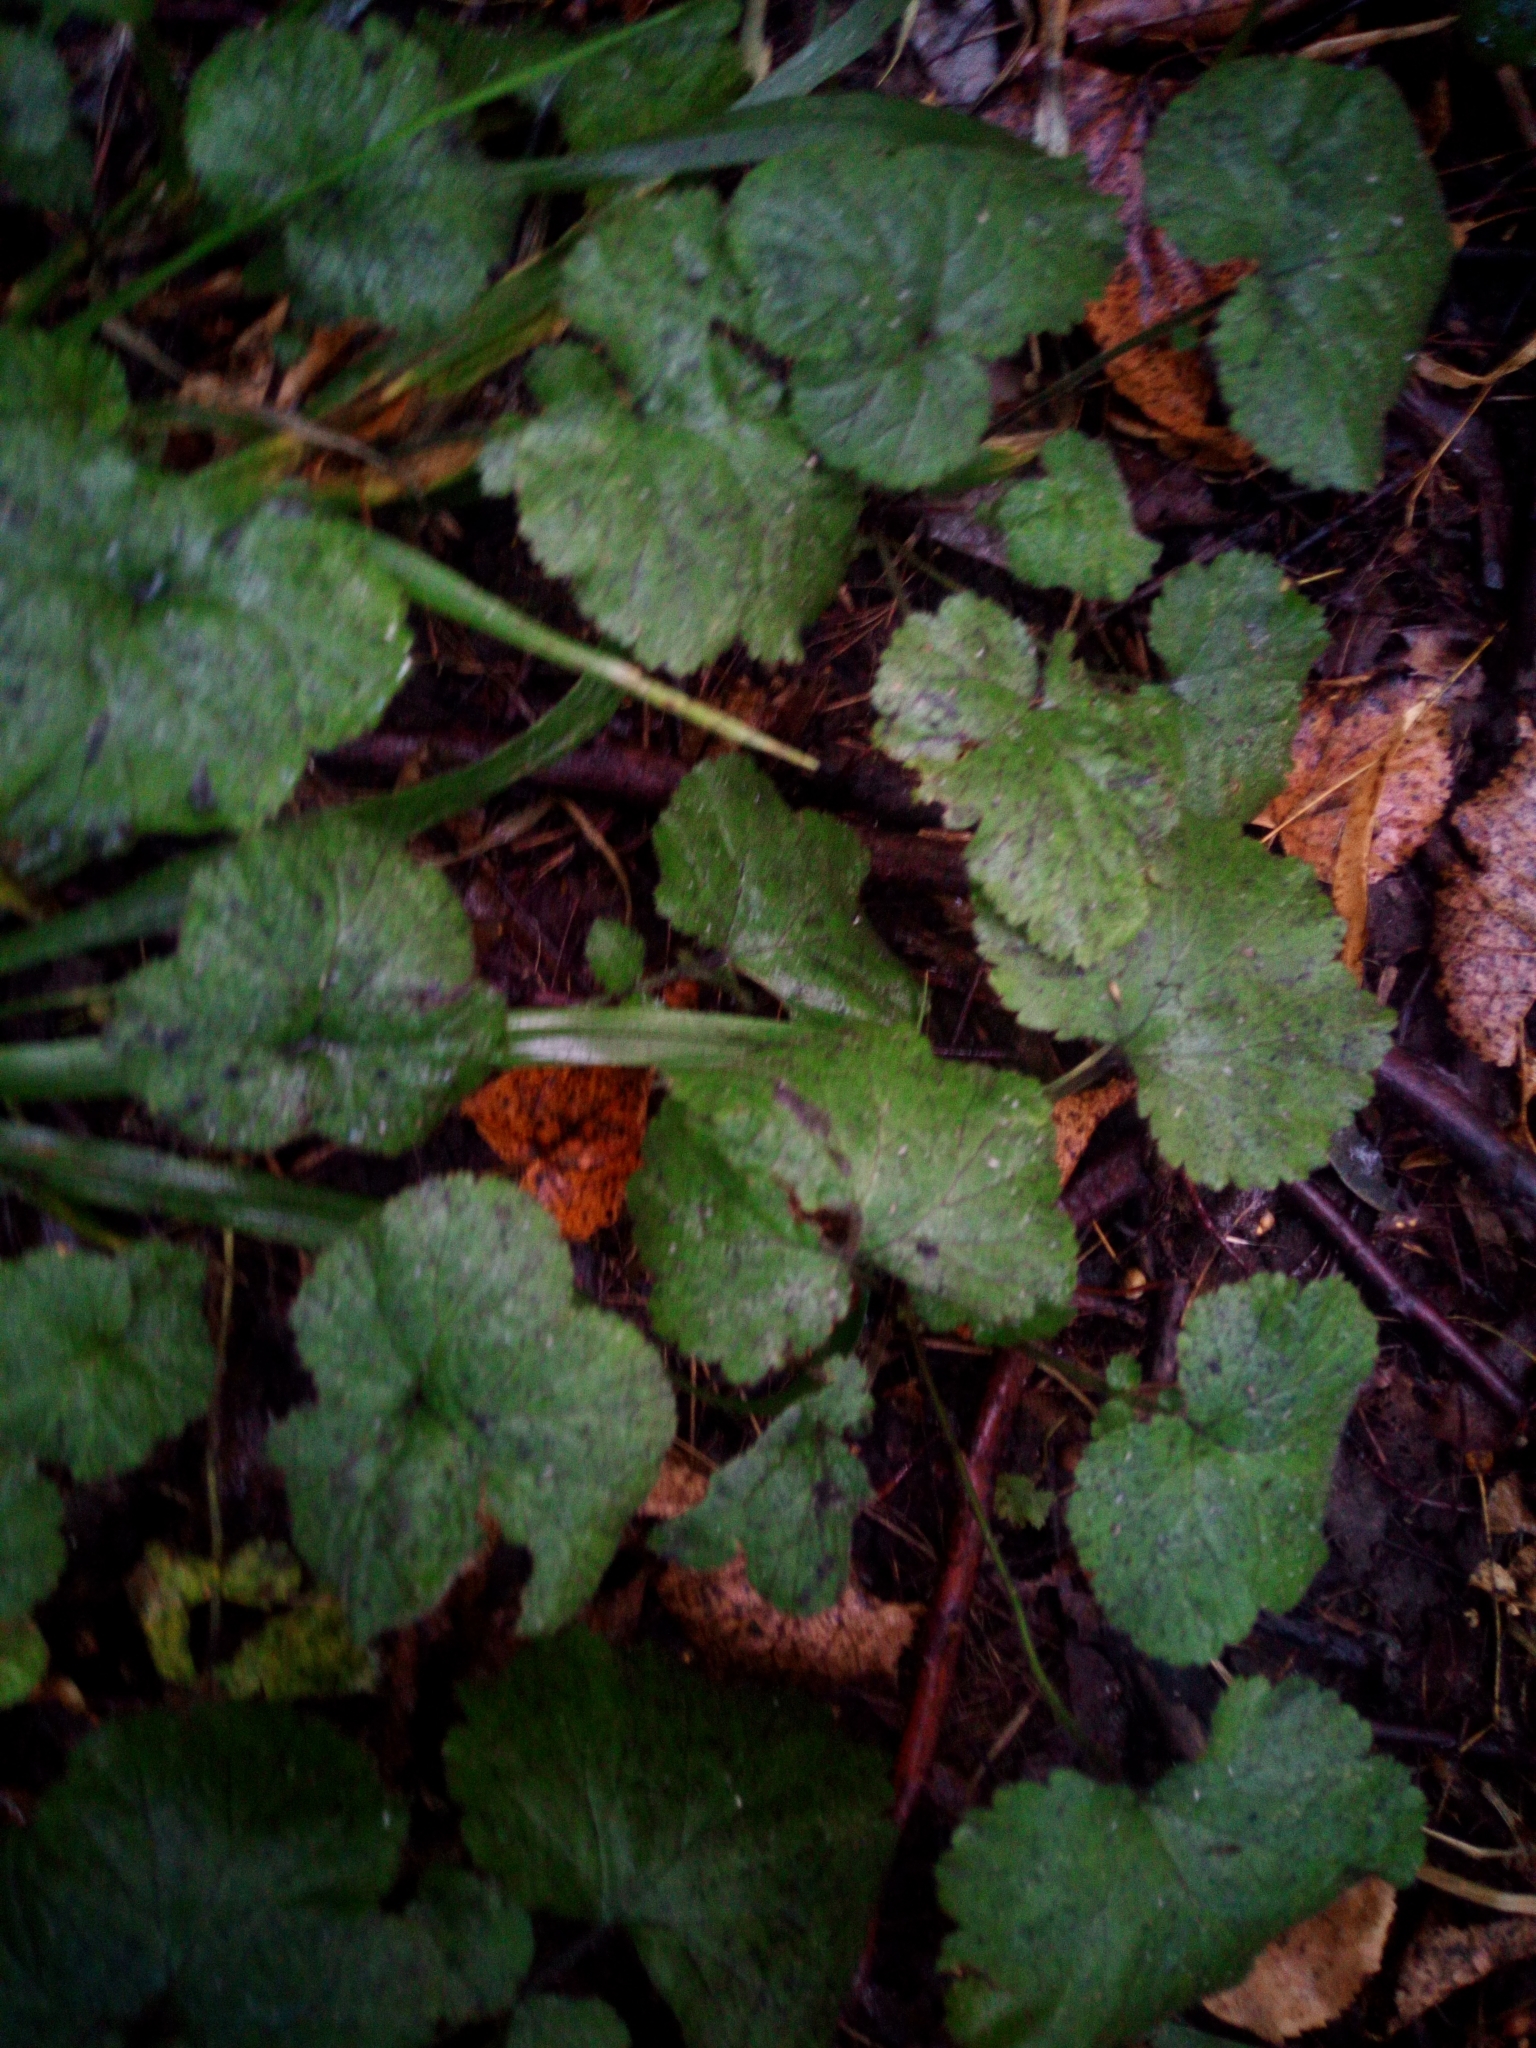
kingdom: Plantae
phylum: Tracheophyta
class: Magnoliopsida
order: Lamiales
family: Lamiaceae
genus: Glechoma
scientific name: Glechoma hederacea
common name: Ground ivy
